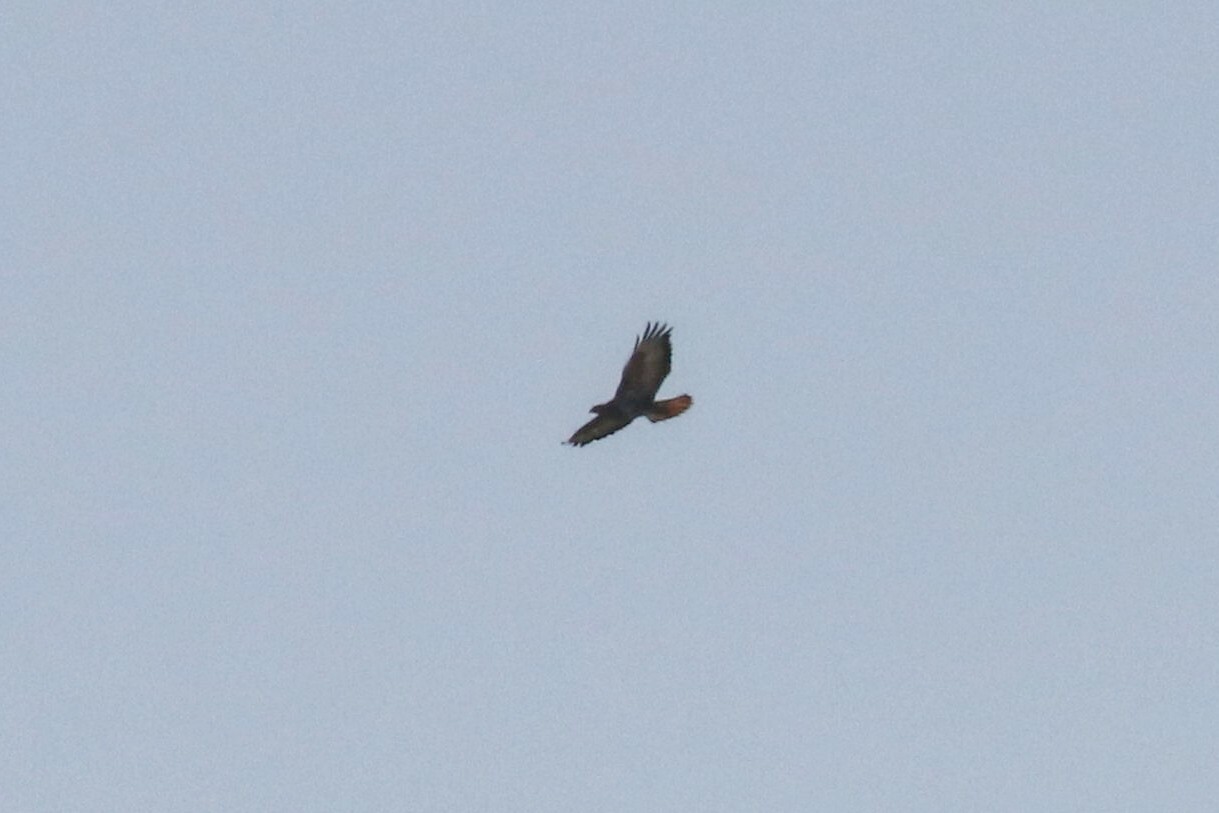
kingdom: Animalia
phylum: Chordata
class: Aves
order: Accipitriformes
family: Accipitridae
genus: Buteo
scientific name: Buteo buteo
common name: Common buzzard
